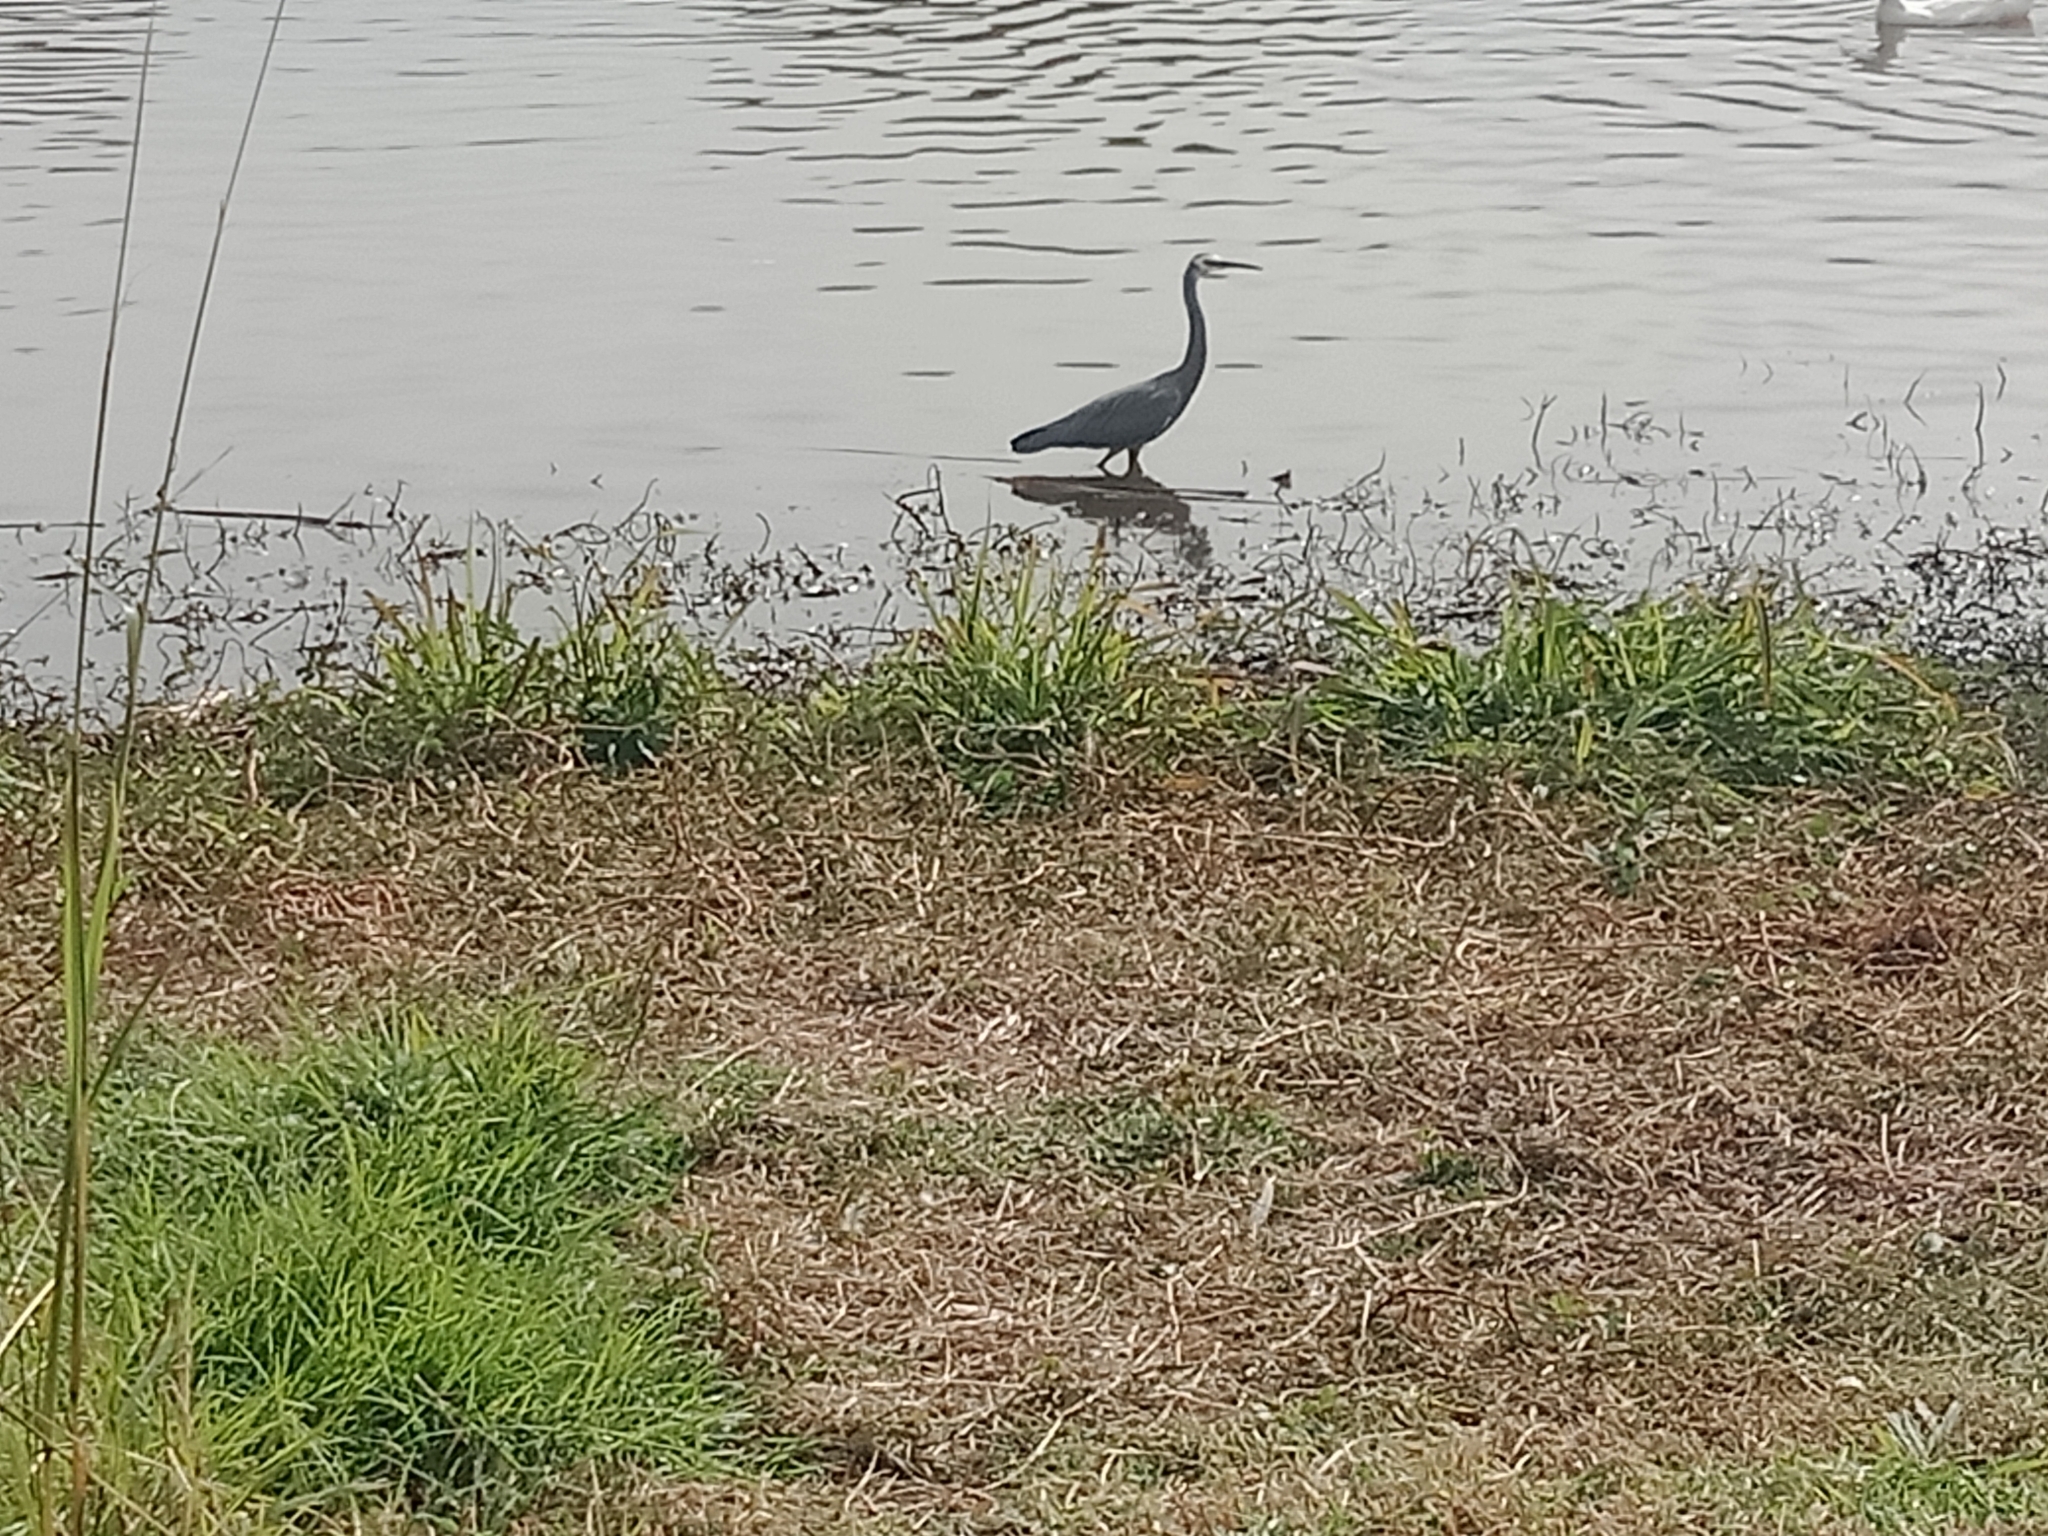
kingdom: Animalia
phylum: Chordata
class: Aves
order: Pelecaniformes
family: Ardeidae
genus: Egretta
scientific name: Egretta novaehollandiae
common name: White-faced heron
